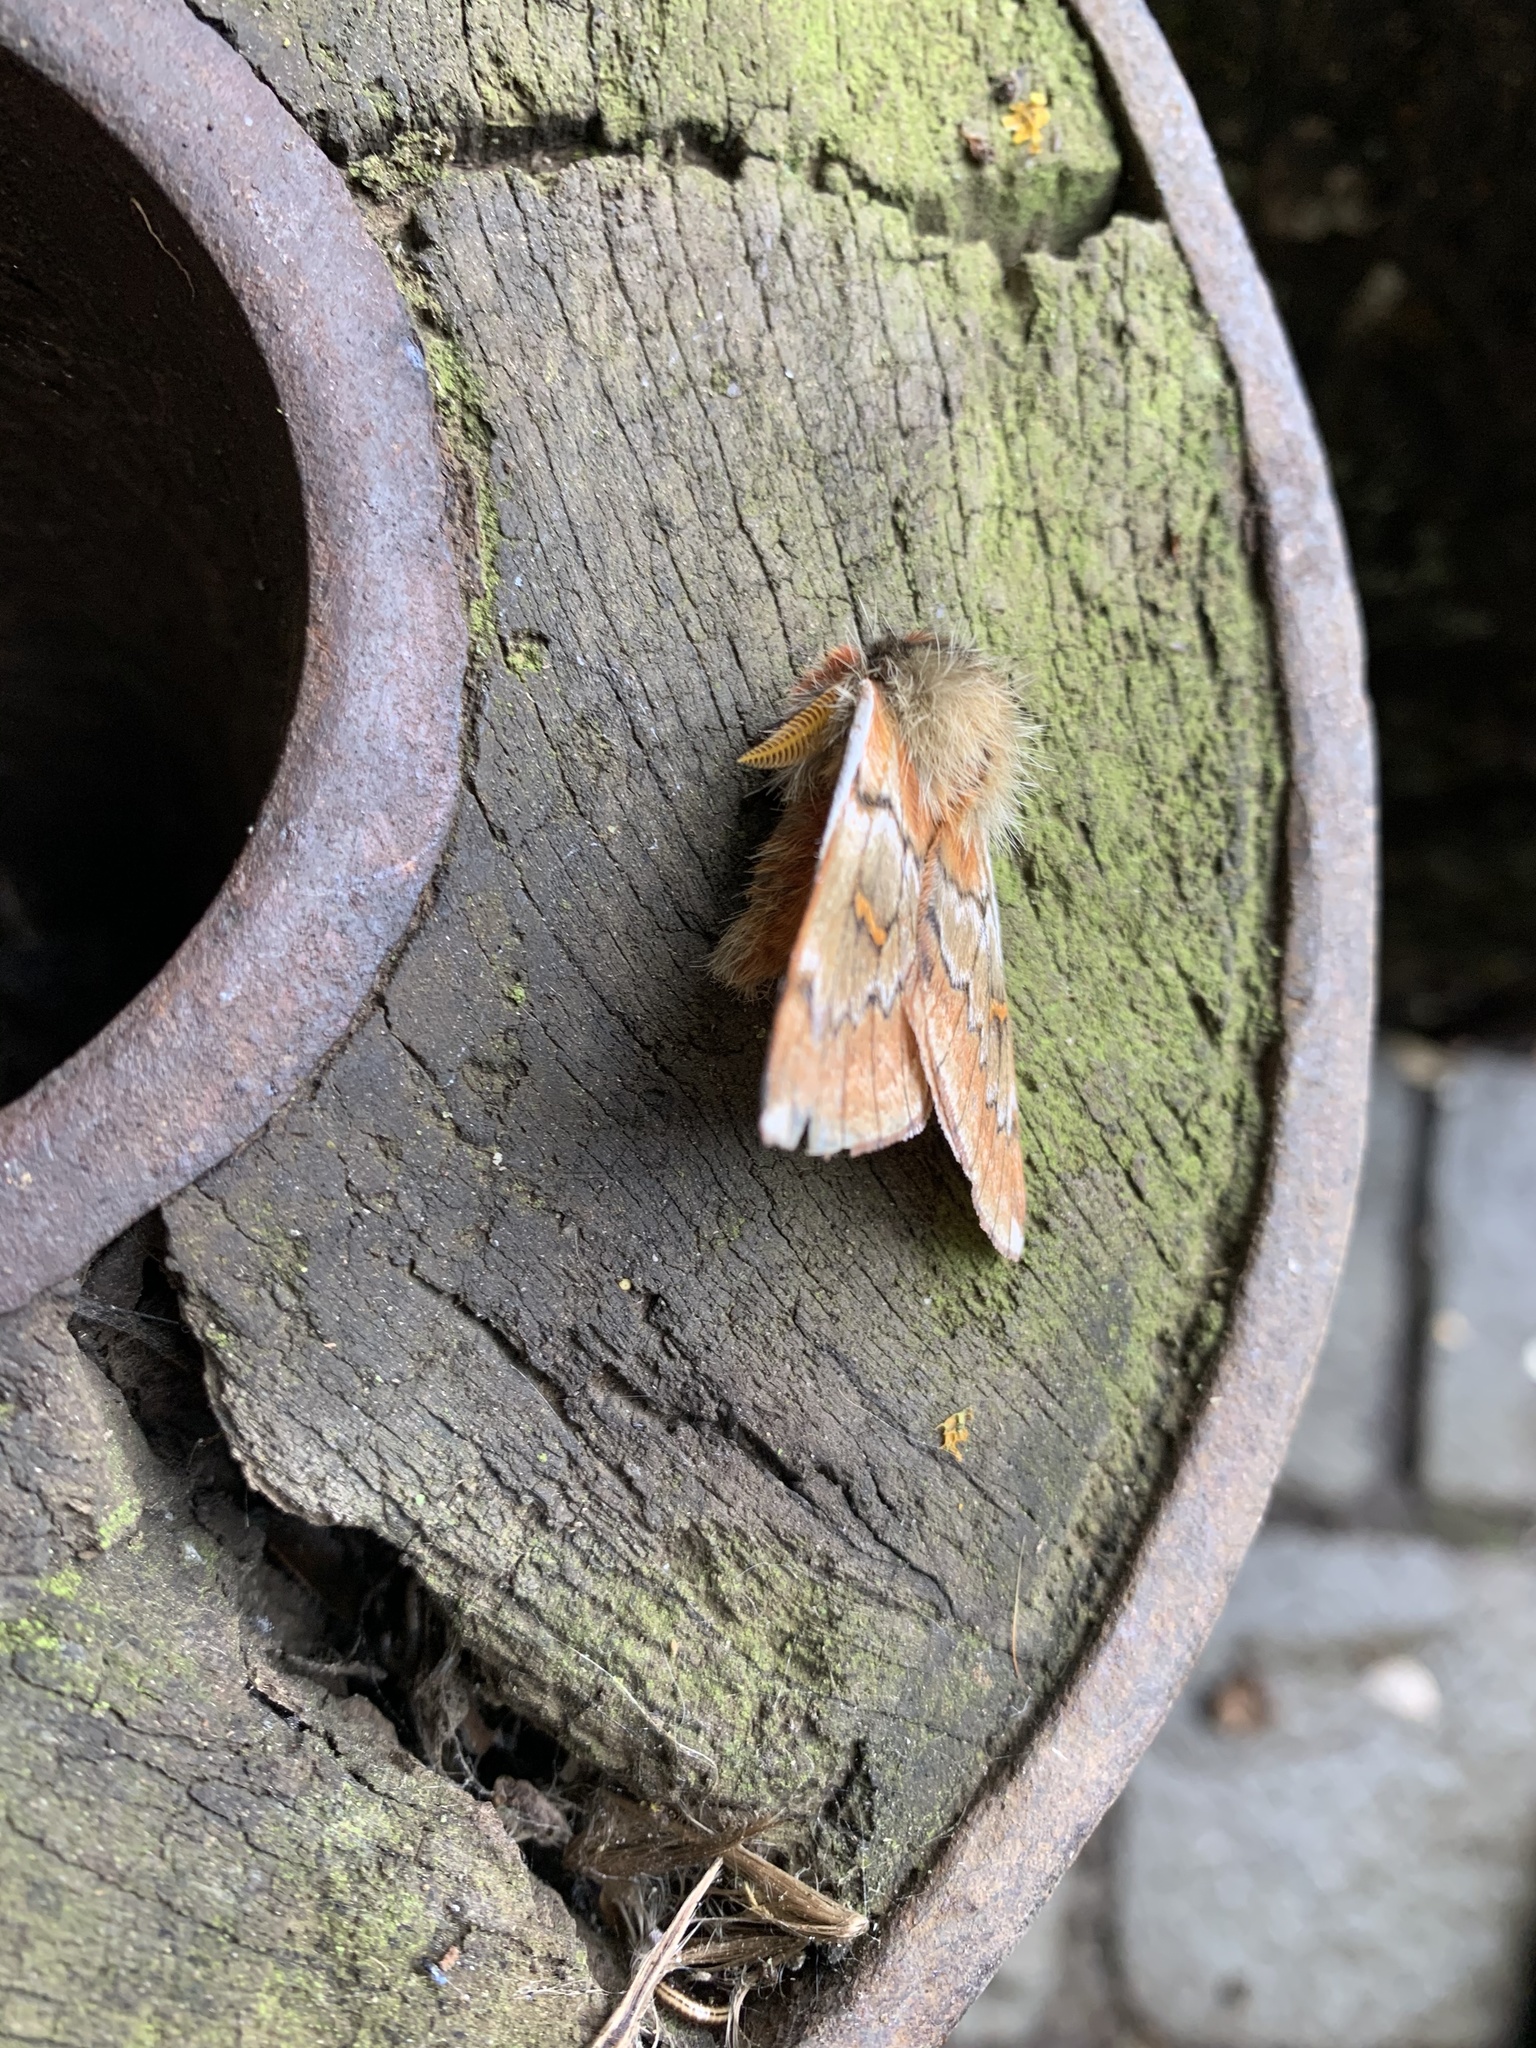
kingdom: Animalia
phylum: Arthropoda
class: Insecta
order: Lepidoptera
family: Saturniidae
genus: Ormiscodes
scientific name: Ormiscodes joiceyi
